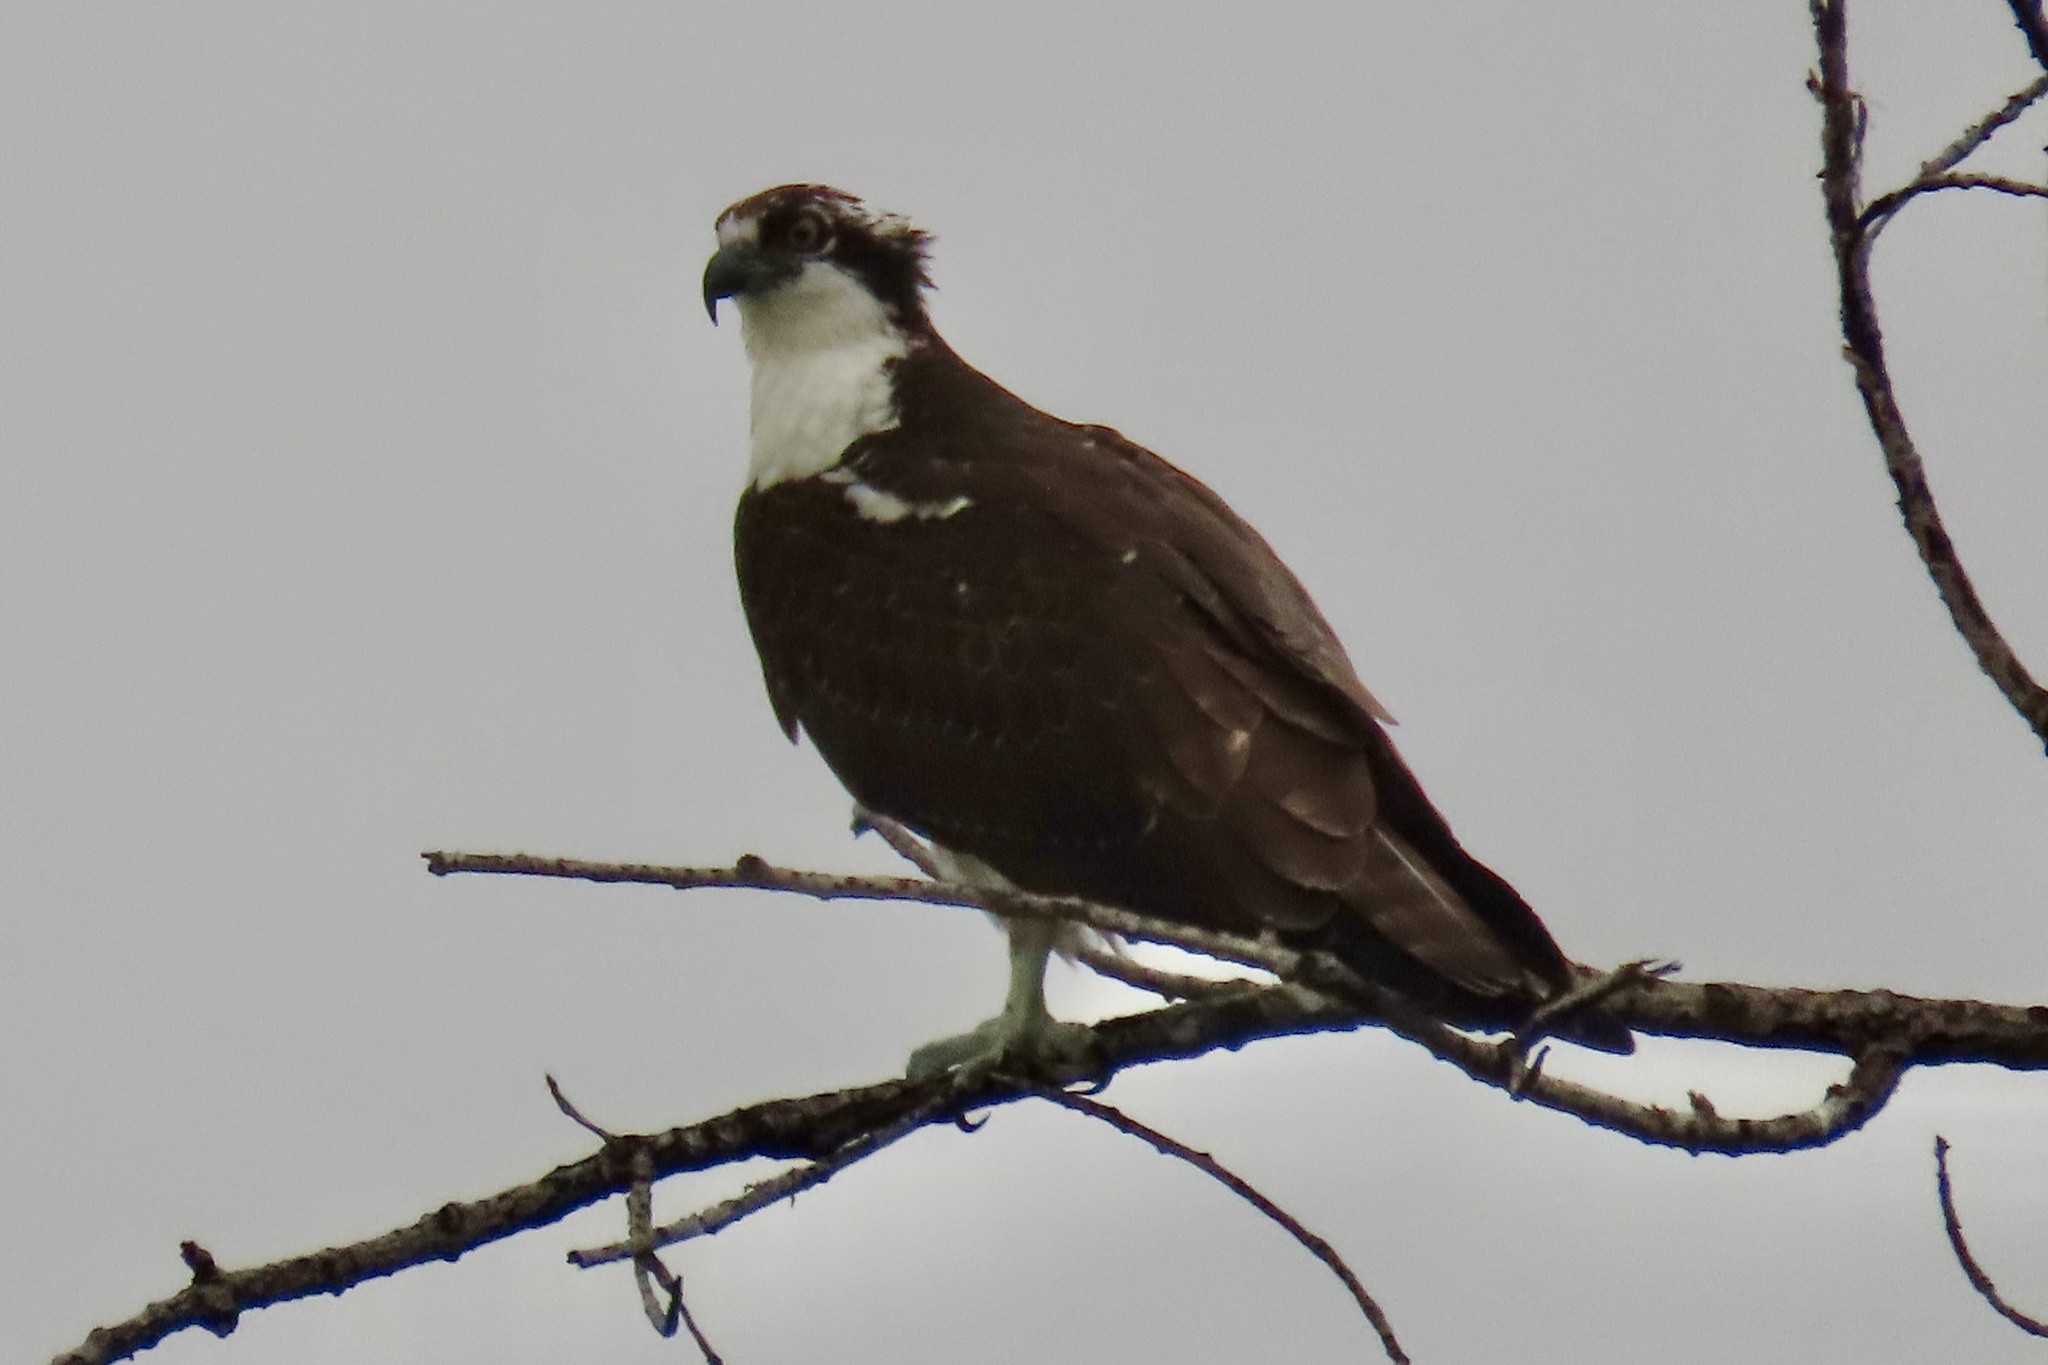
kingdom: Animalia
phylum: Chordata
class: Aves
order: Accipitriformes
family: Pandionidae
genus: Pandion
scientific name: Pandion haliaetus
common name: Osprey
